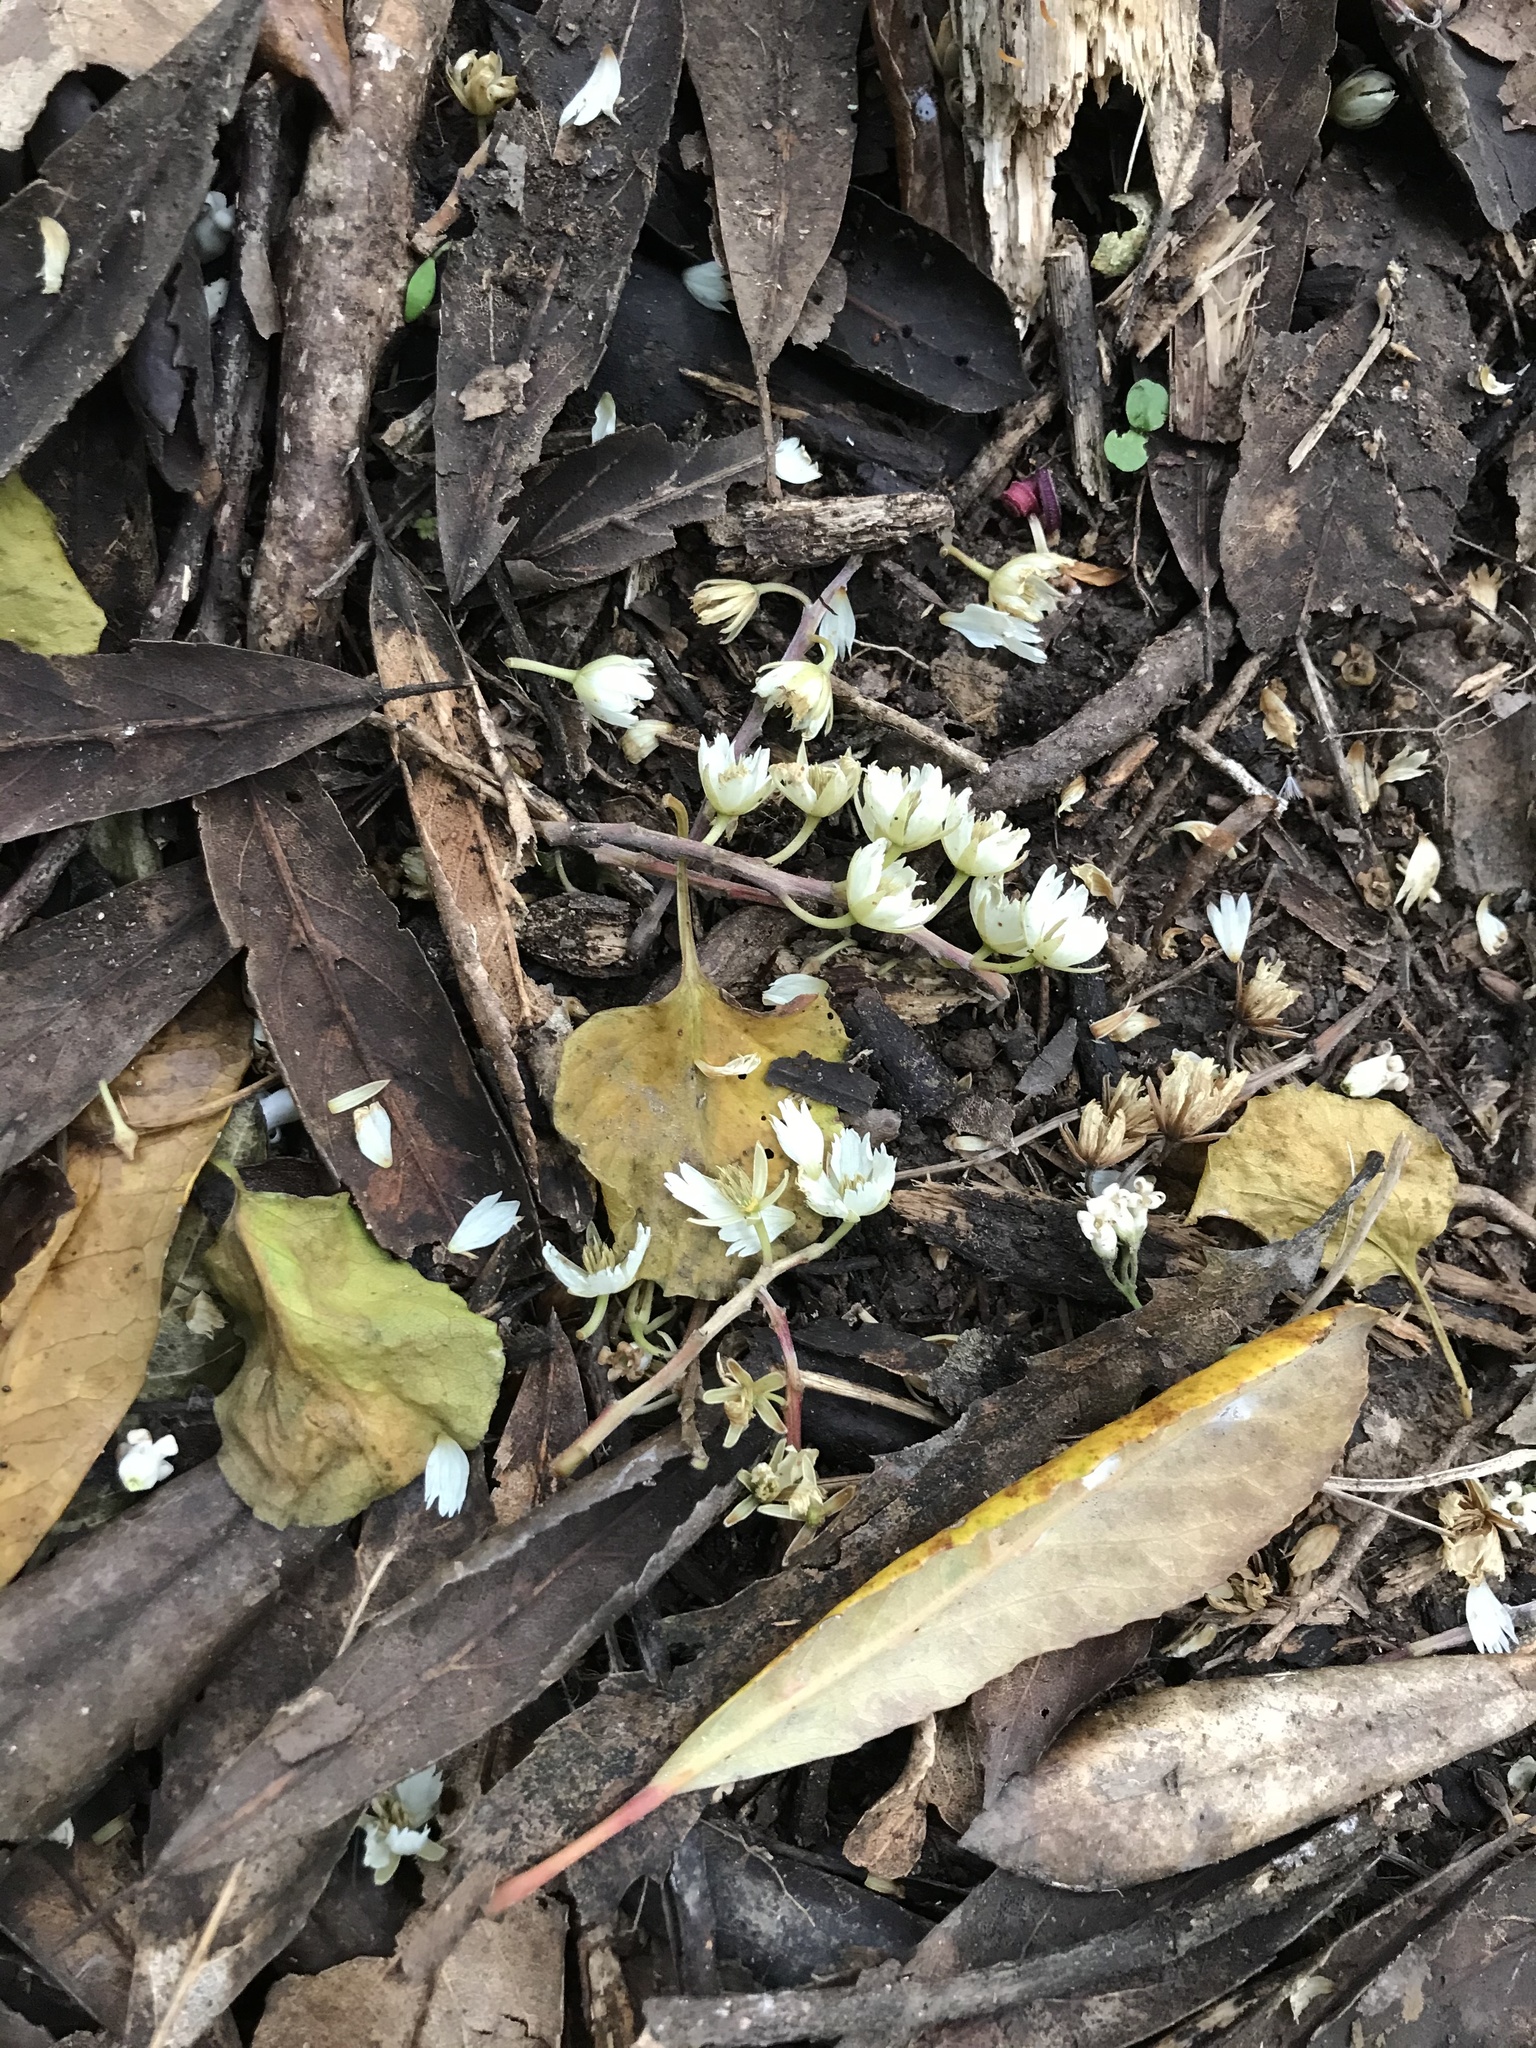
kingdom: Plantae
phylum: Tracheophyta
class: Magnoliopsida
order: Oxalidales
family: Elaeocarpaceae
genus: Elaeocarpus
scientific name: Elaeocarpus dentatus
